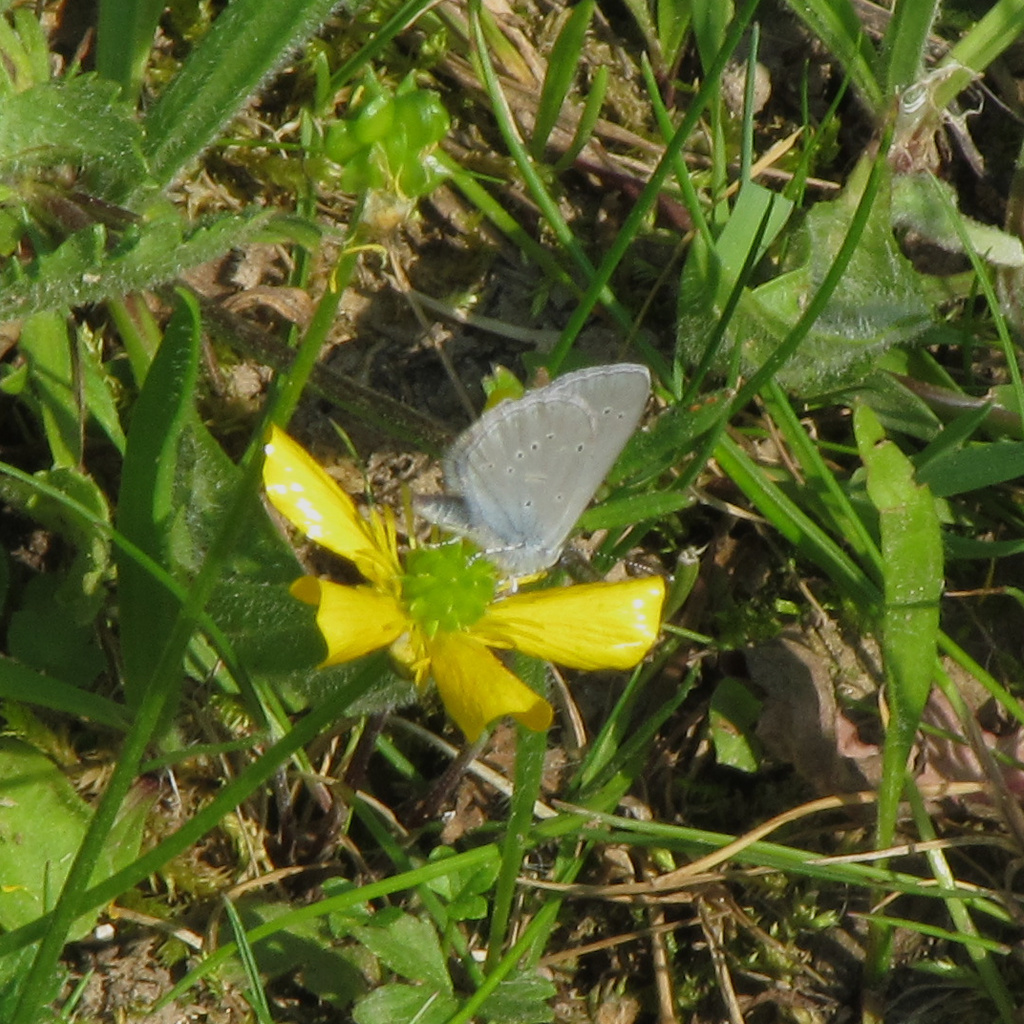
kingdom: Animalia
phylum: Arthropoda
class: Insecta
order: Lepidoptera
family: Lycaenidae
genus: Cupido
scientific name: Cupido minimus
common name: Small blue
